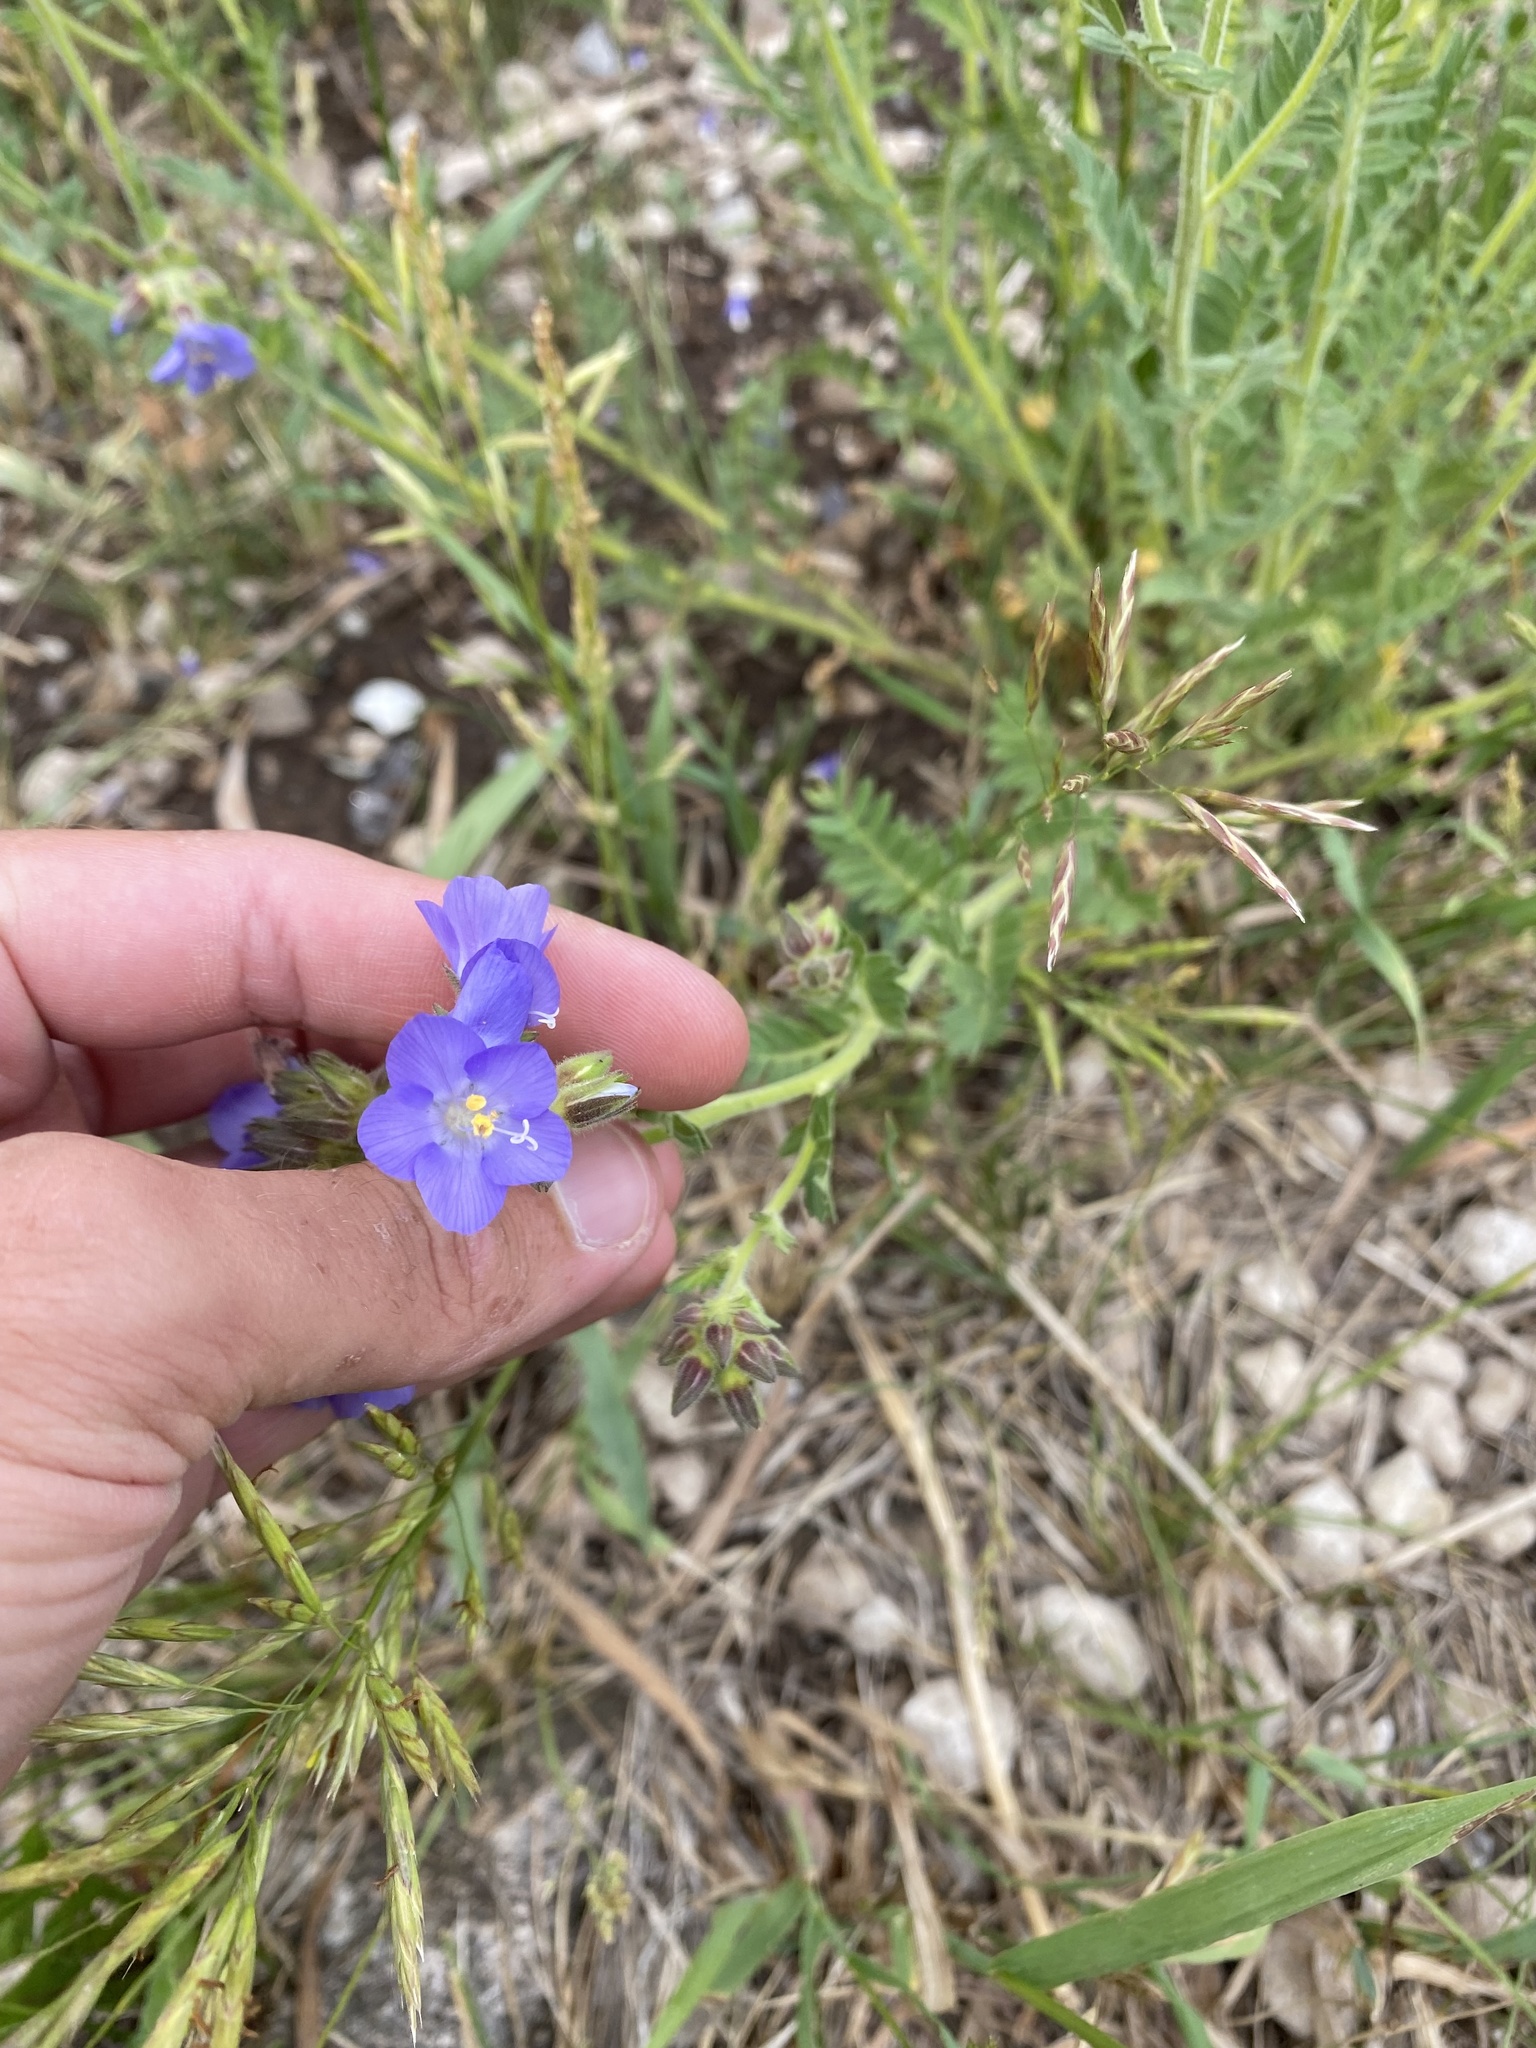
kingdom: Plantae
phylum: Tracheophyta
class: Magnoliopsida
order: Ericales
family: Polemoniaceae
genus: Polemonium
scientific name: Polemonium foliosissimum
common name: Leafy jacob's-ladder
